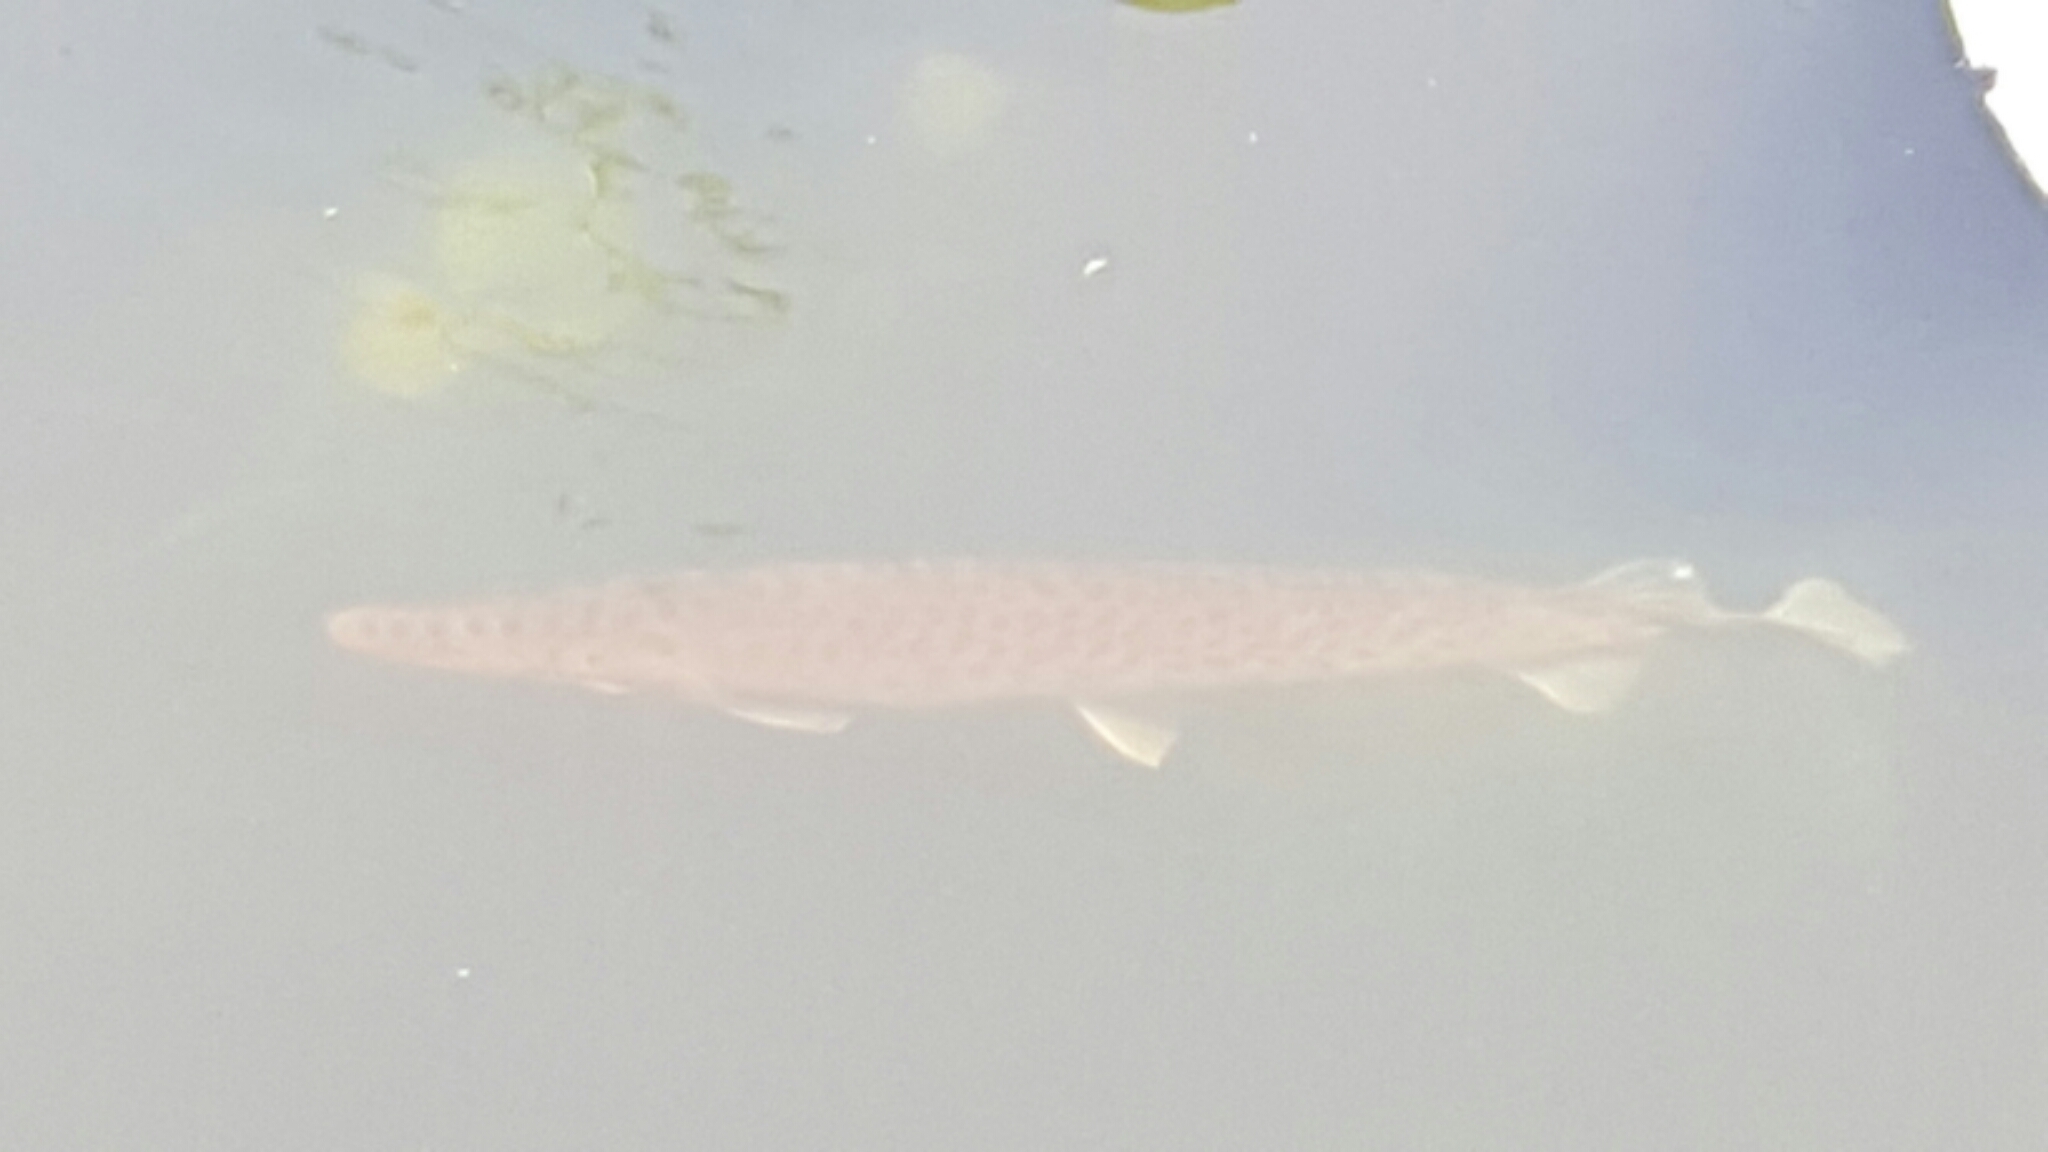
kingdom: Animalia
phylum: Chordata
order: Lepisosteiformes
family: Lepisosteidae
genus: Lepisosteus
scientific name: Lepisosteus platyrhincus
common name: Florida gar
